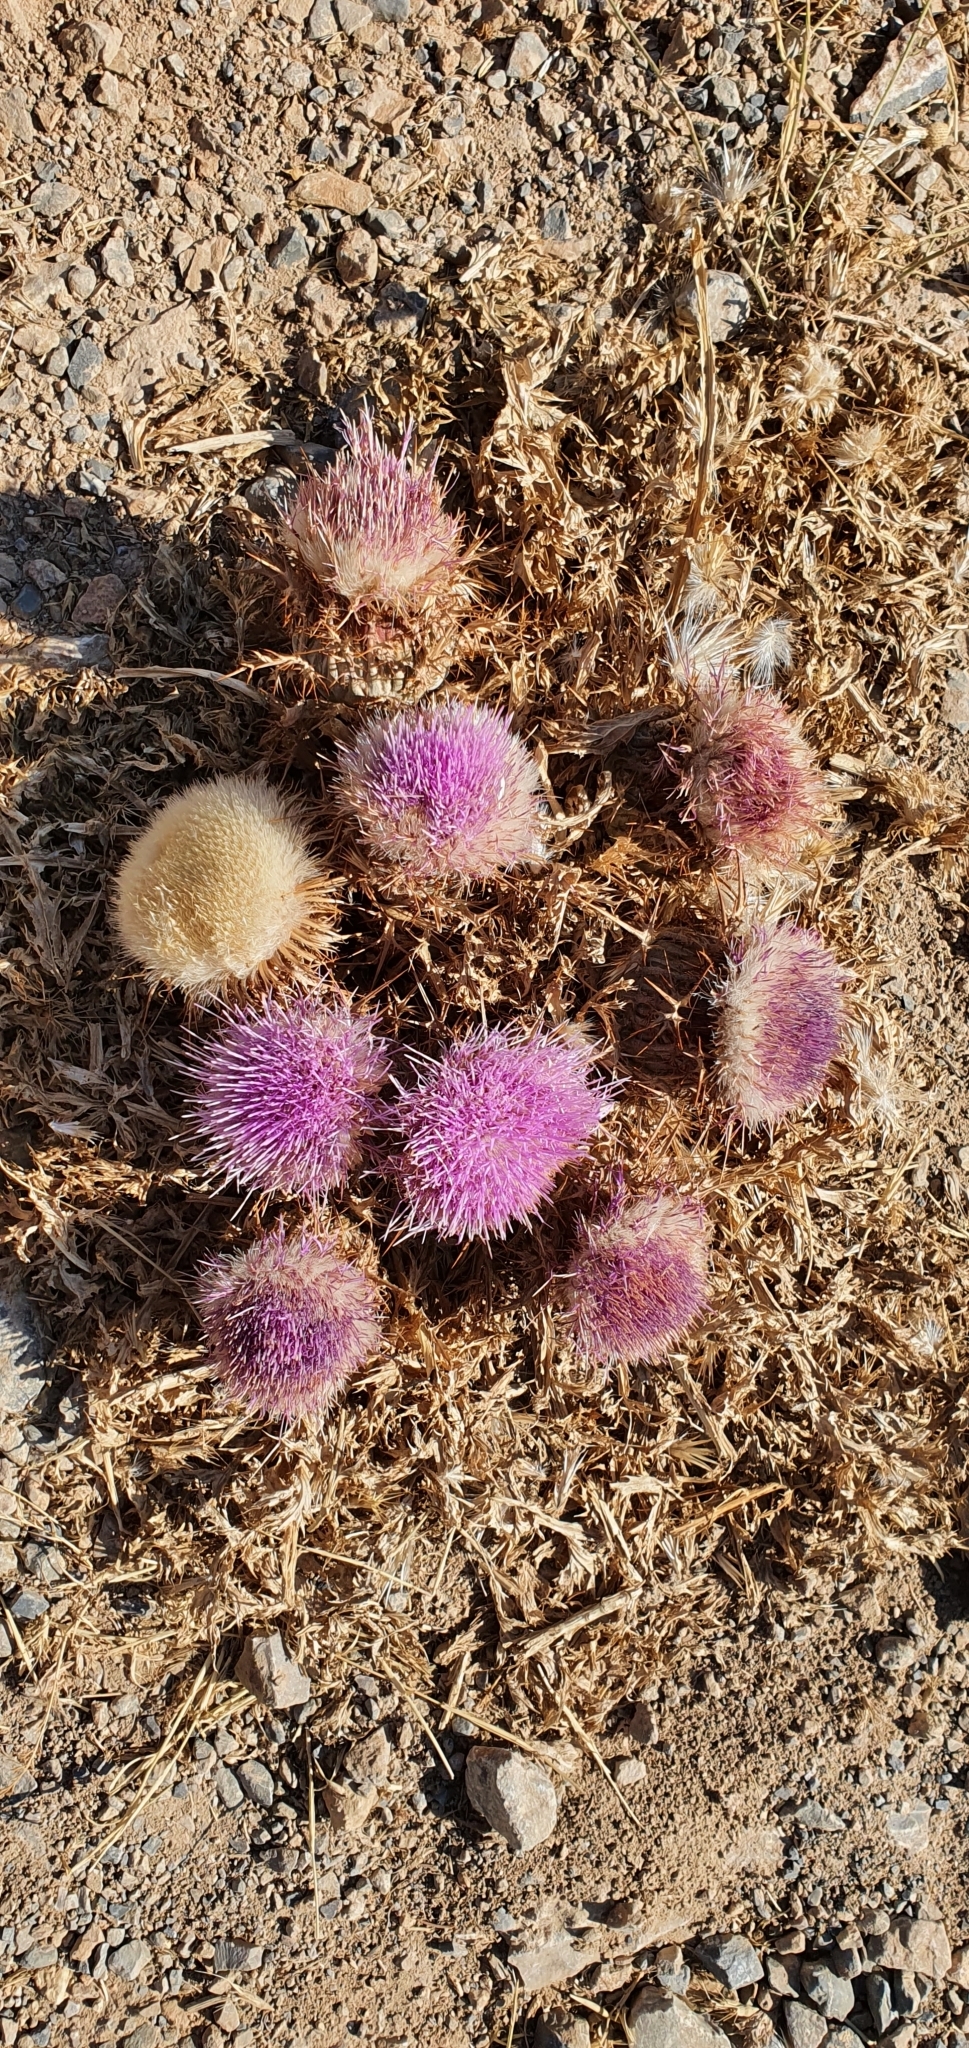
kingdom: Plantae
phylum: Tracheophyta
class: Magnoliopsida
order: Asterales
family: Asteraceae
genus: Chamaeleon
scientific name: Chamaeleon gummifer
